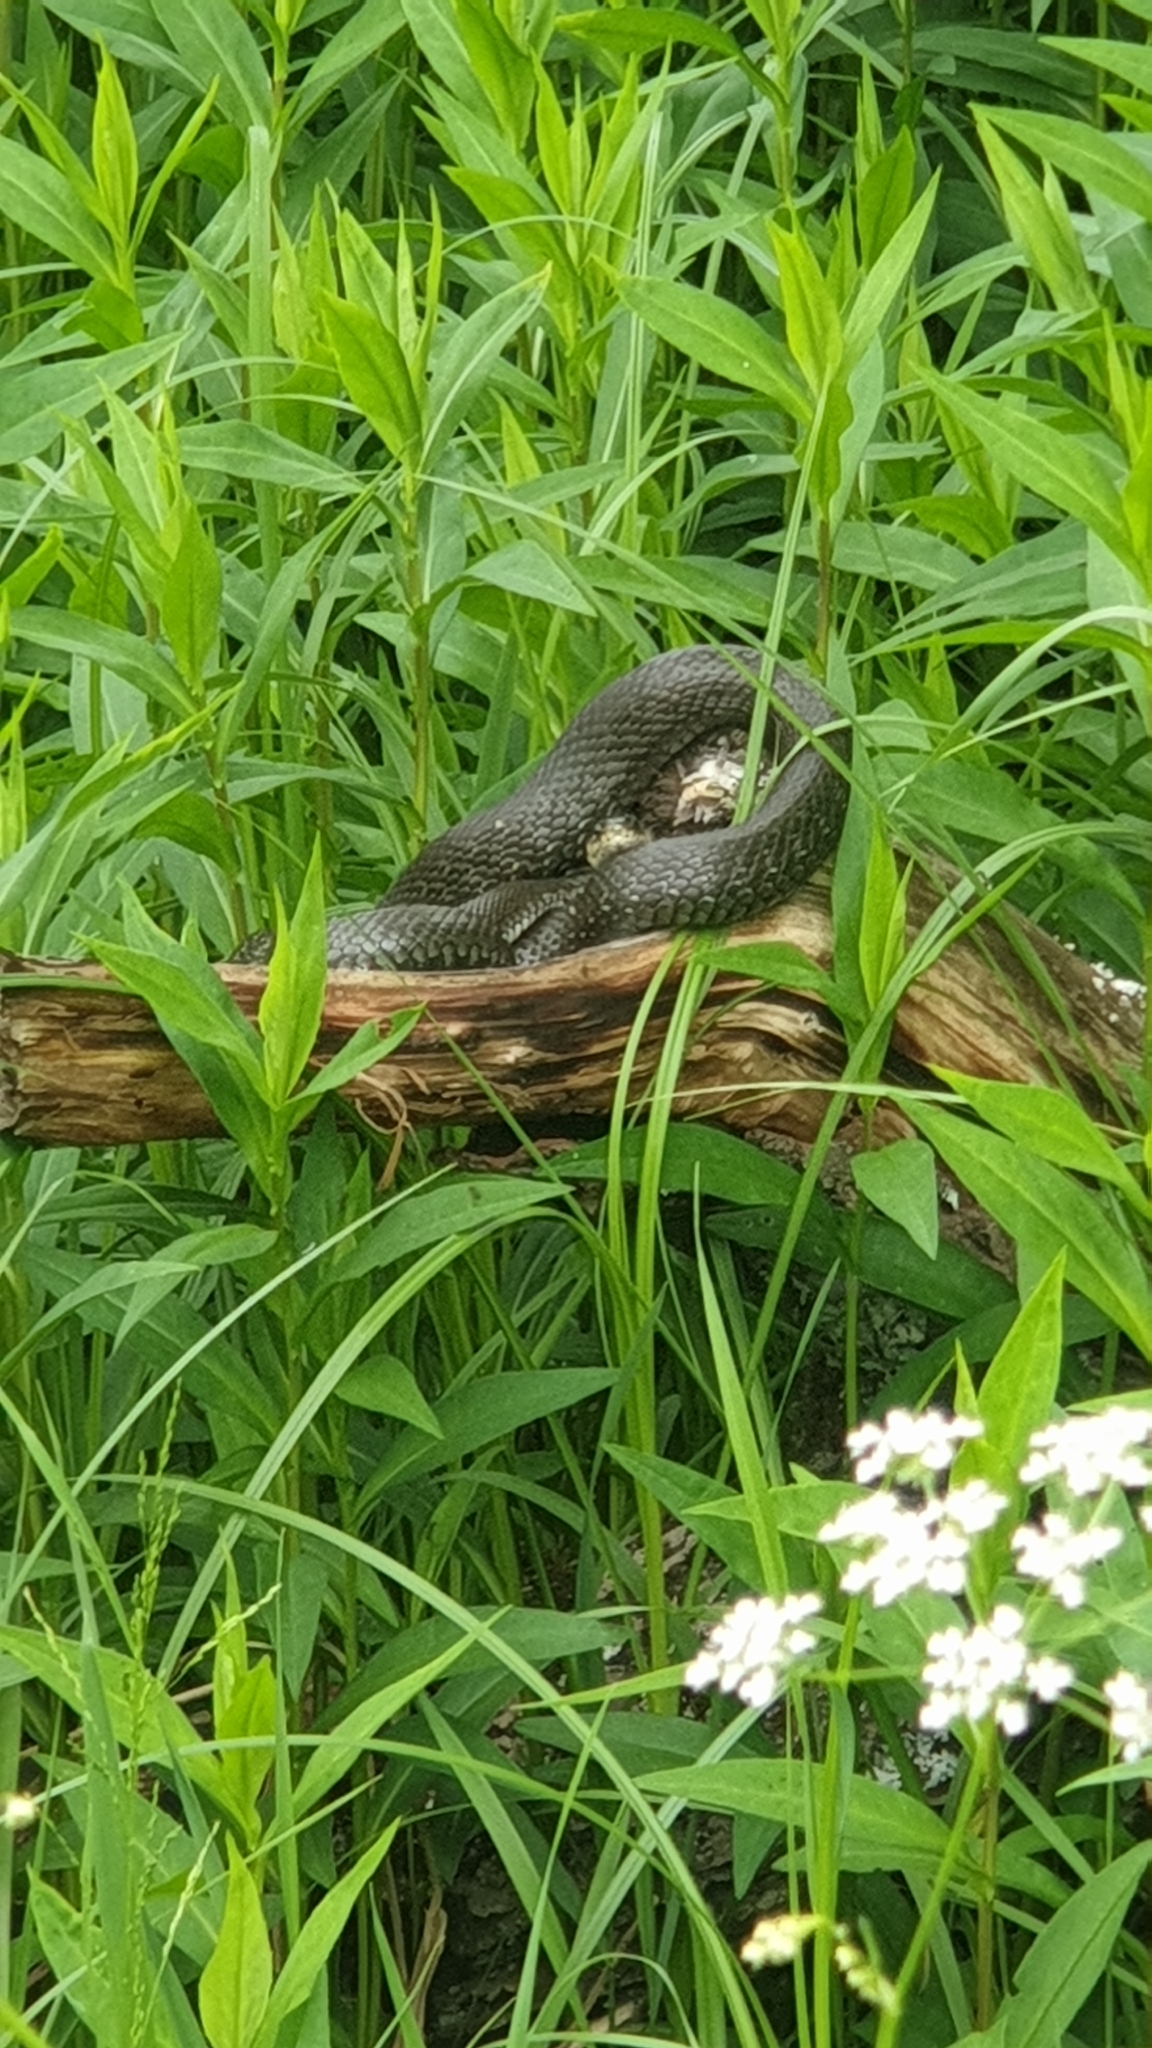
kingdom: Animalia
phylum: Chordata
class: Squamata
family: Colubridae
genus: Natrix
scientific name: Natrix natrix
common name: Grass snake
